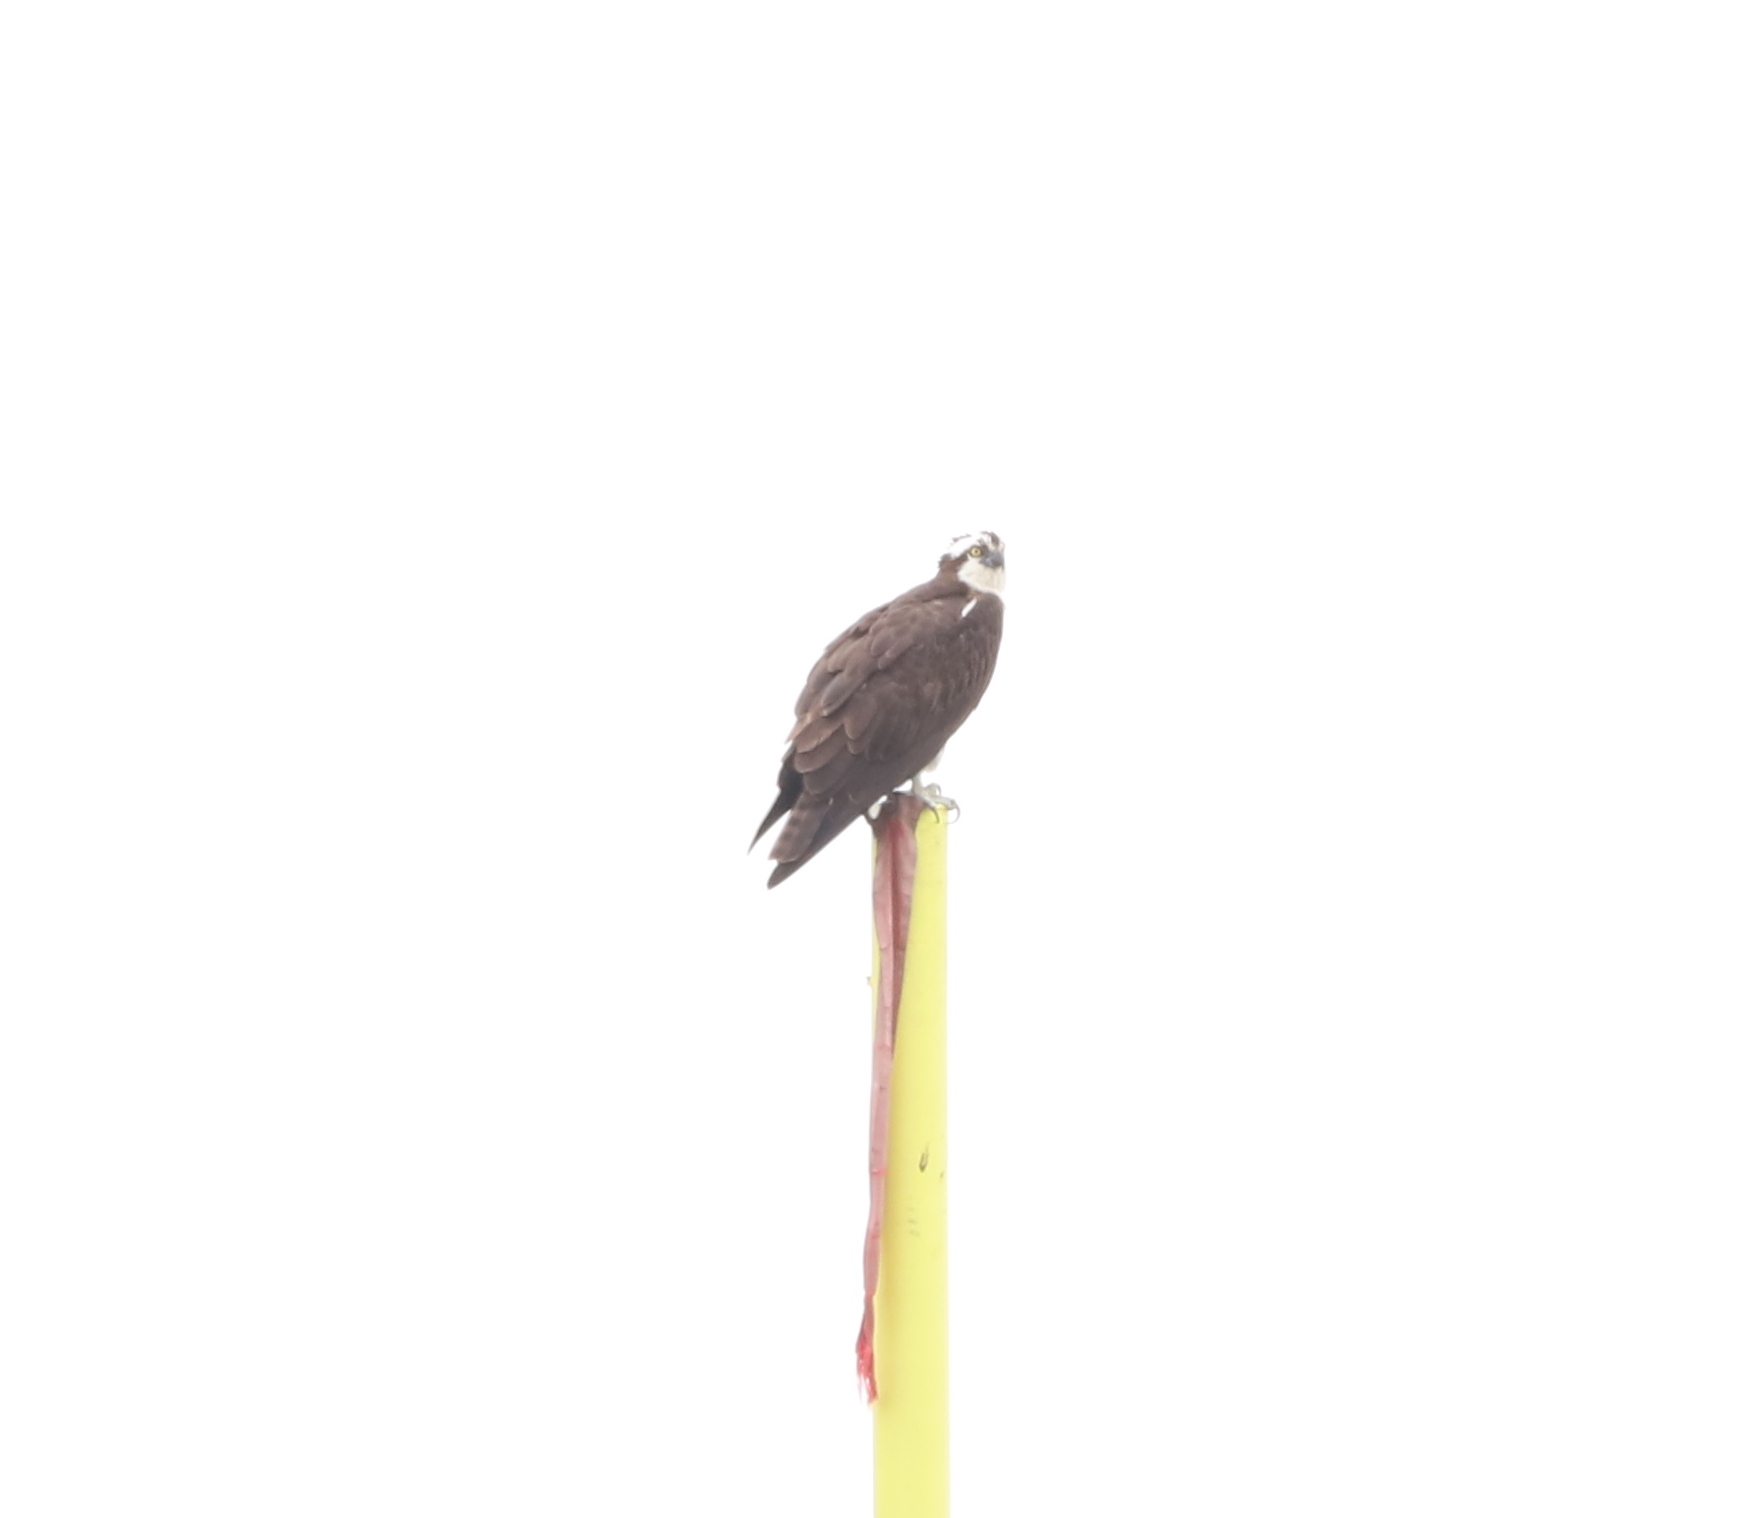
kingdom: Animalia
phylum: Chordata
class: Aves
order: Accipitriformes
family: Pandionidae
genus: Pandion
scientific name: Pandion haliaetus
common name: Osprey
